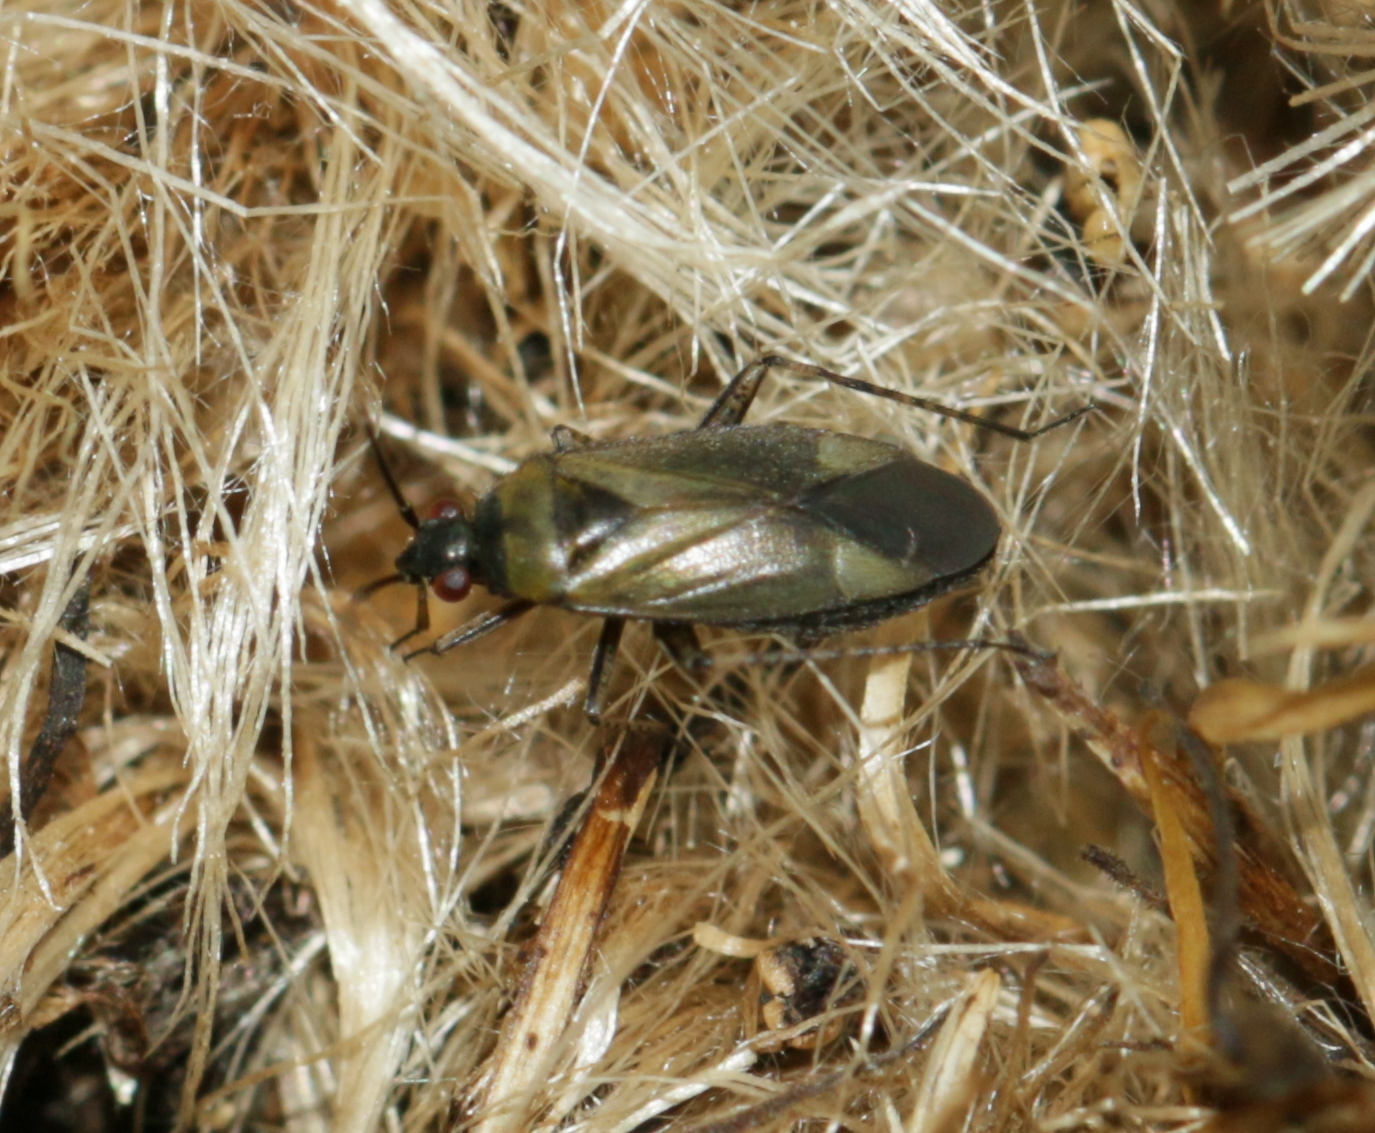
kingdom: Animalia
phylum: Arthropoda
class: Insecta
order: Hemiptera
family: Miridae
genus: Plagiognathus
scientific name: Plagiognathus arbustorum
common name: Plant bug
